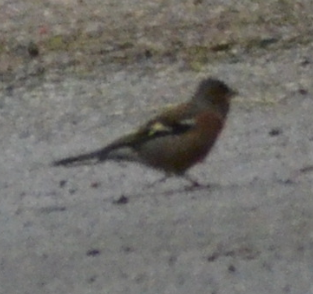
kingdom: Animalia
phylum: Chordata
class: Aves
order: Passeriformes
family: Fringillidae
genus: Fringilla
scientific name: Fringilla coelebs
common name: Common chaffinch
